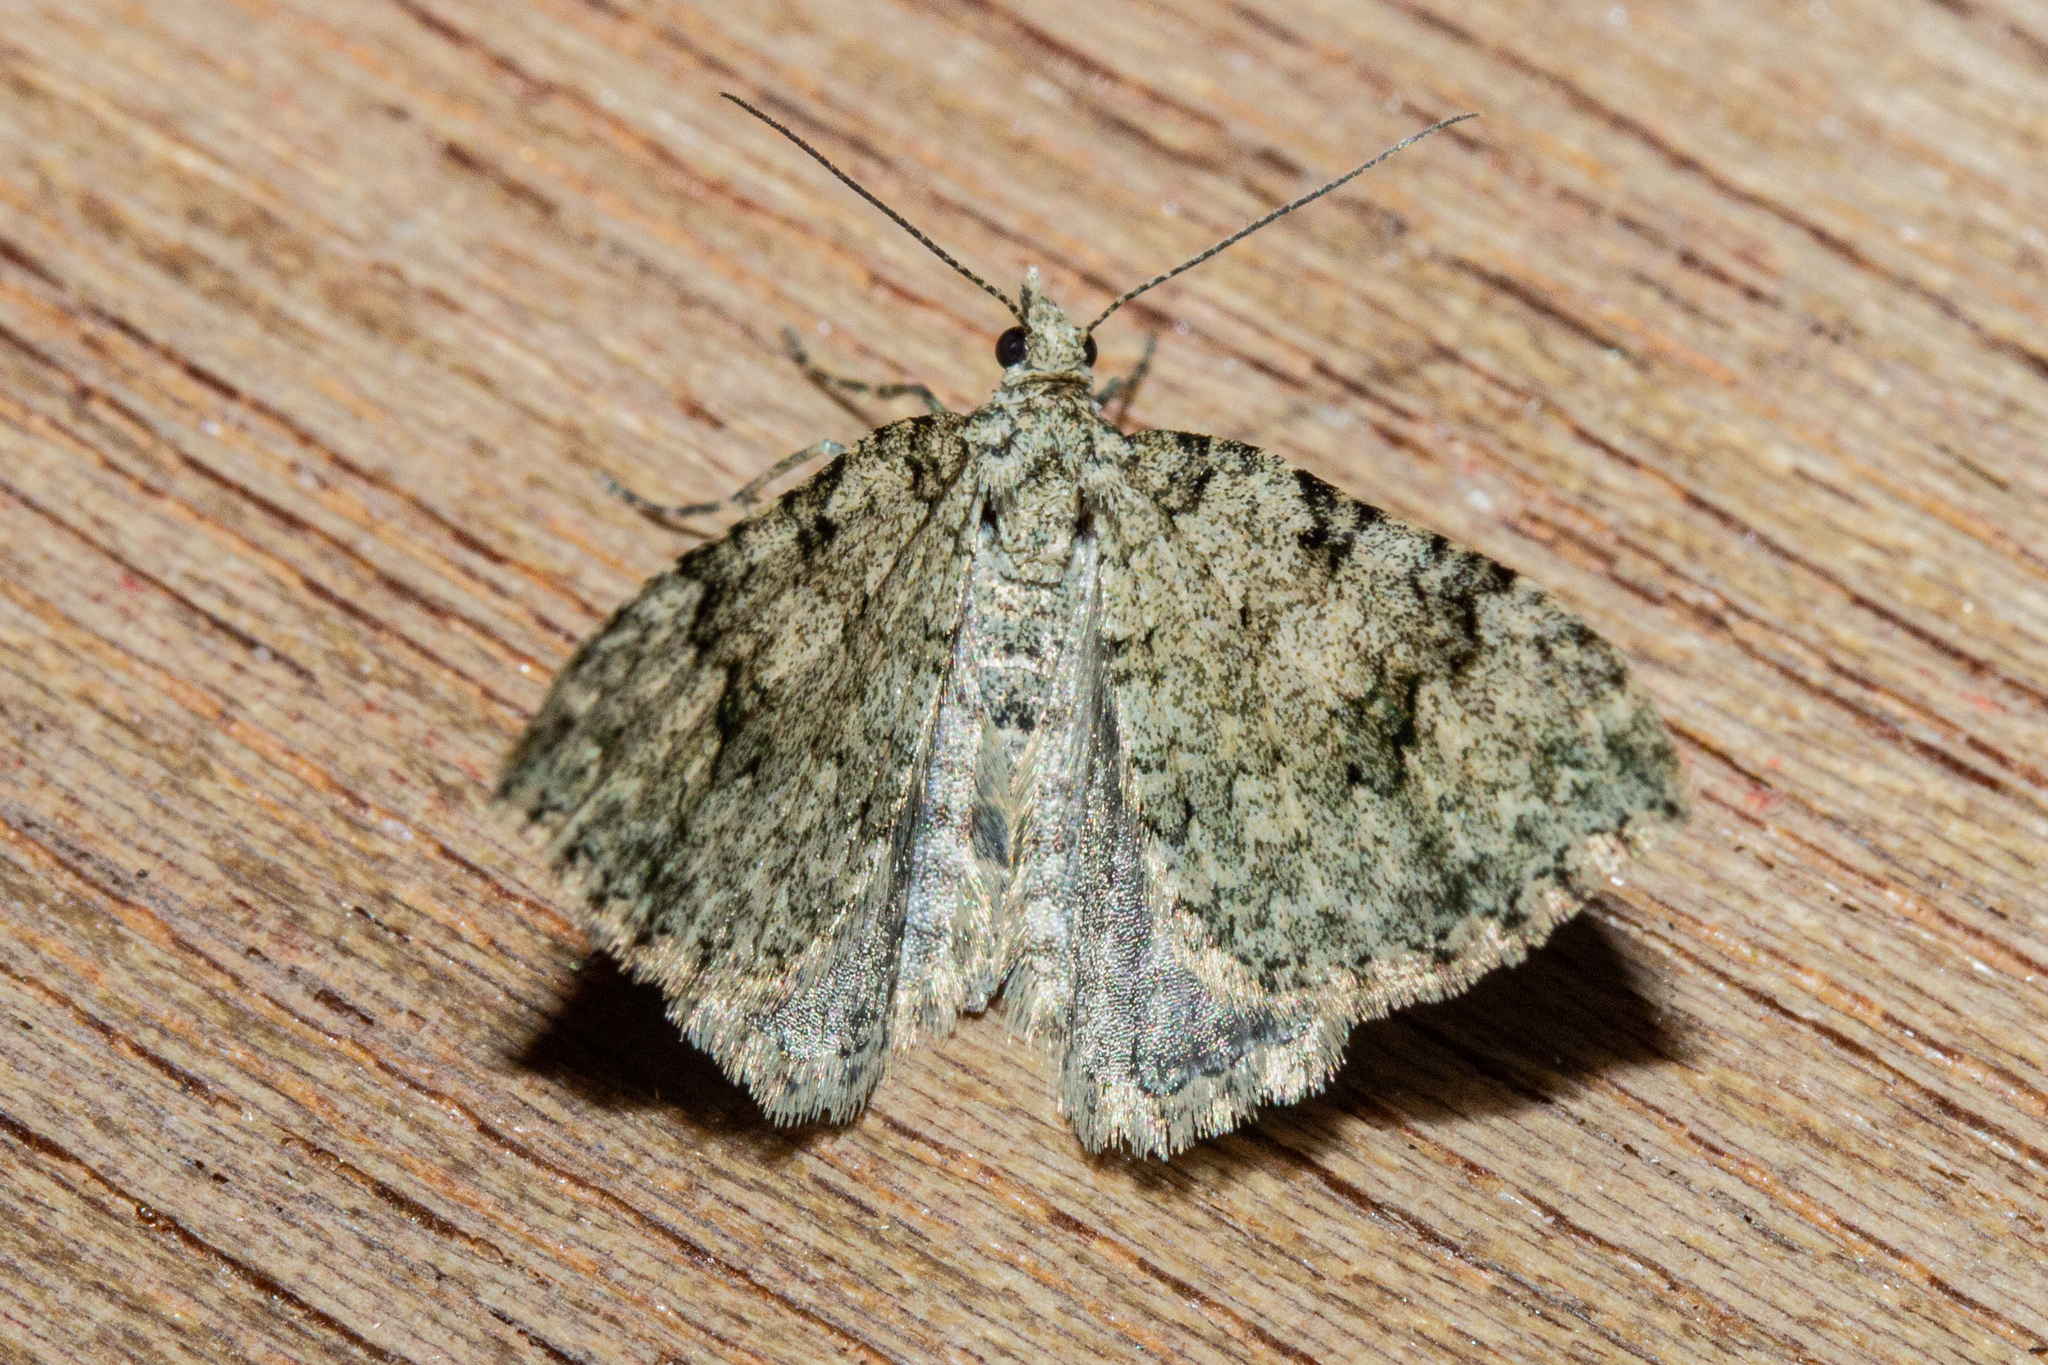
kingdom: Animalia
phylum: Arthropoda
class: Insecta
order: Lepidoptera
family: Geometridae
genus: Helastia
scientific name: Helastia cinerearia
